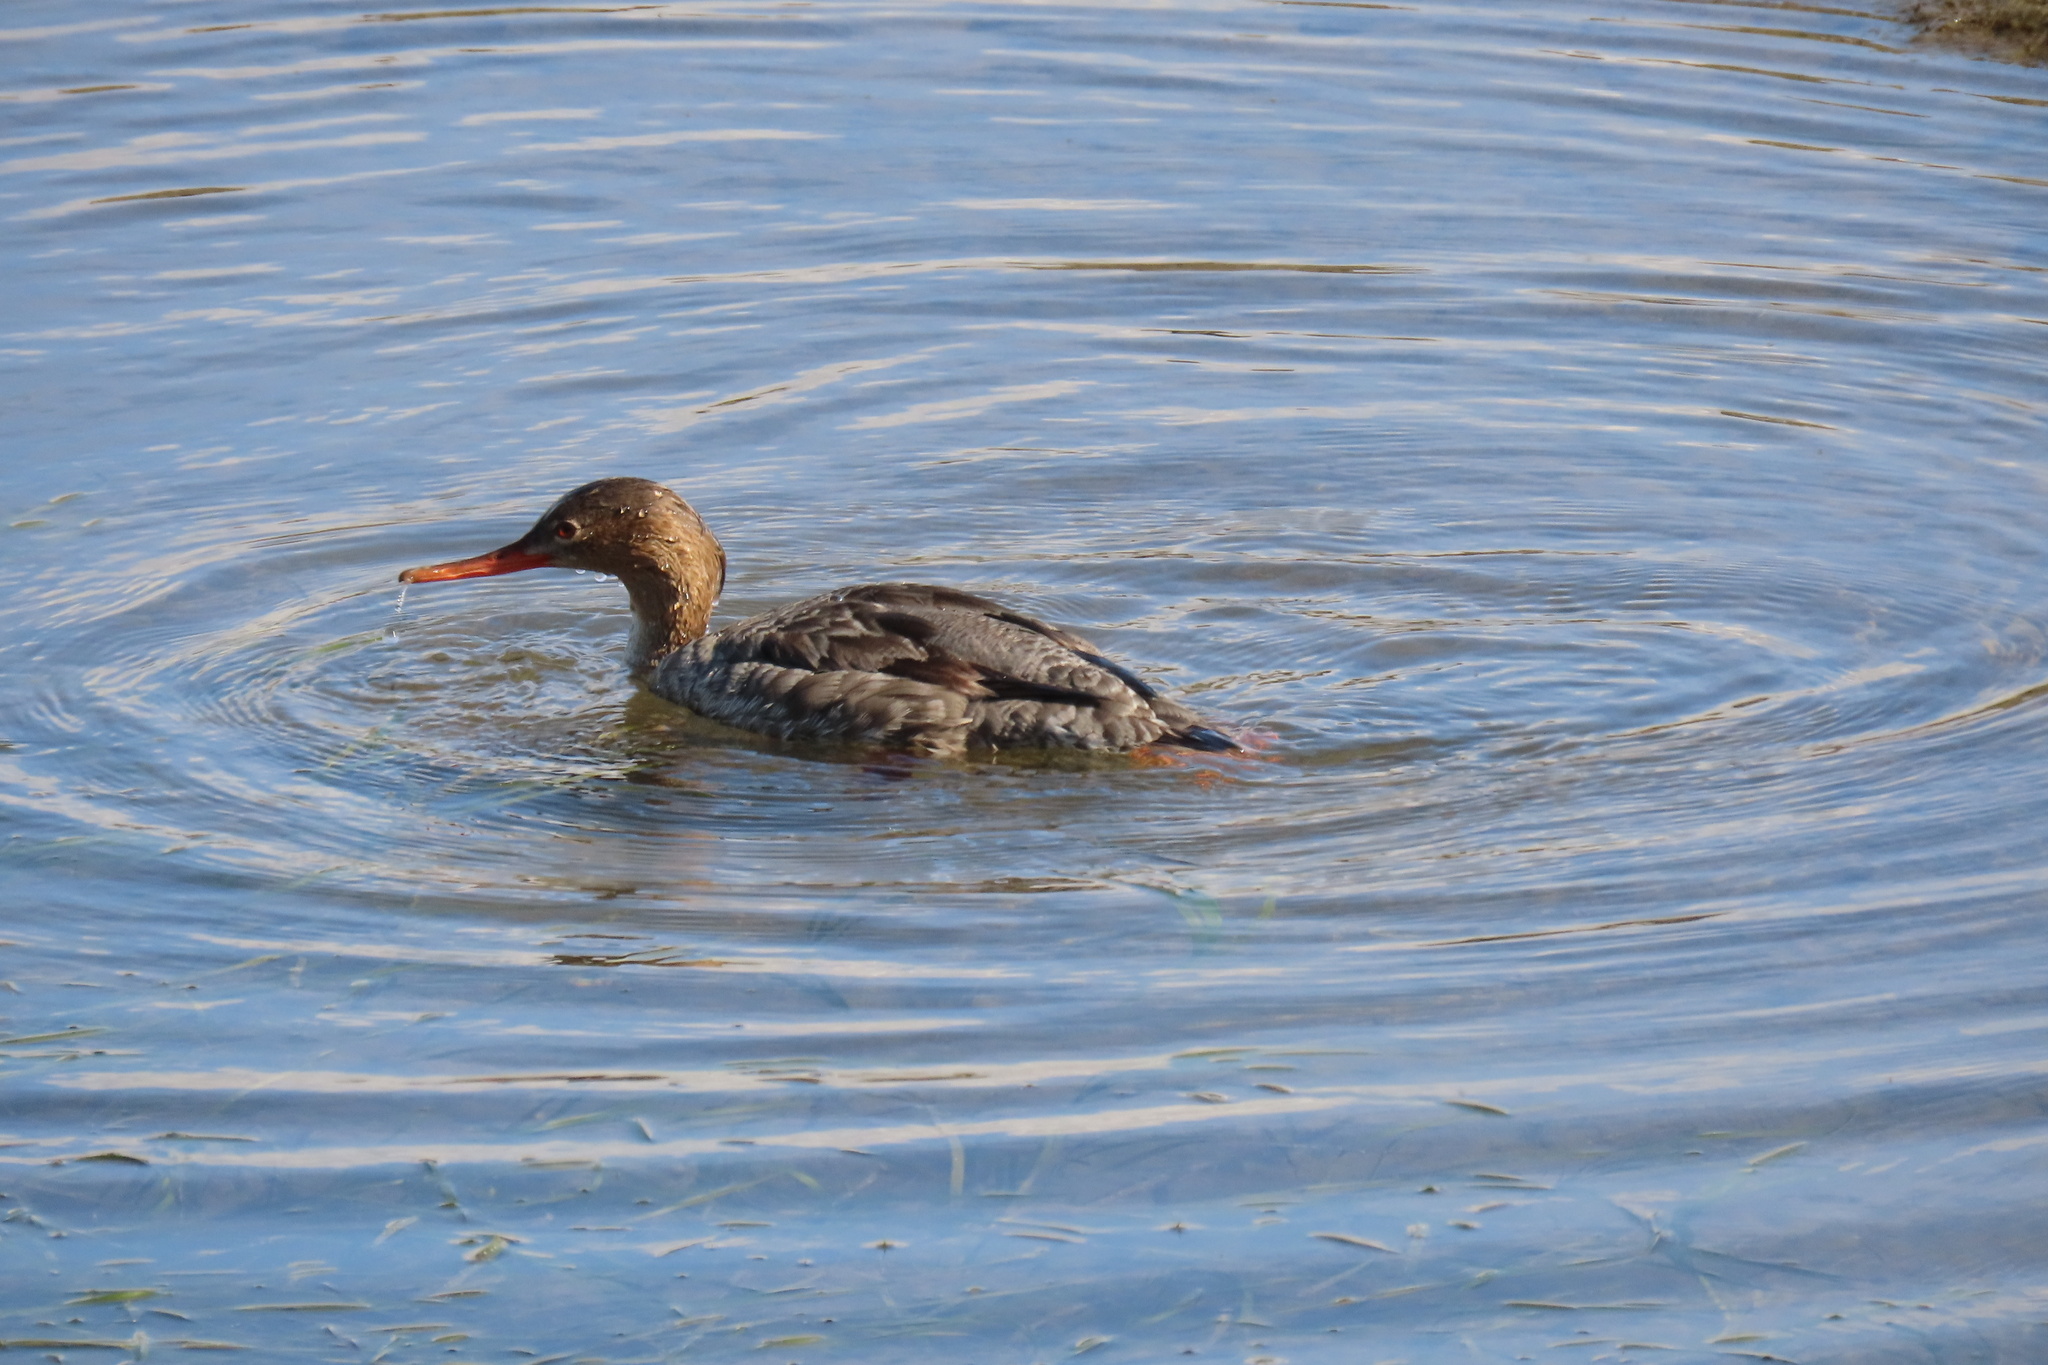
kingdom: Animalia
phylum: Chordata
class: Aves
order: Anseriformes
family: Anatidae
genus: Mergus
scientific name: Mergus serrator
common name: Red-breasted merganser
